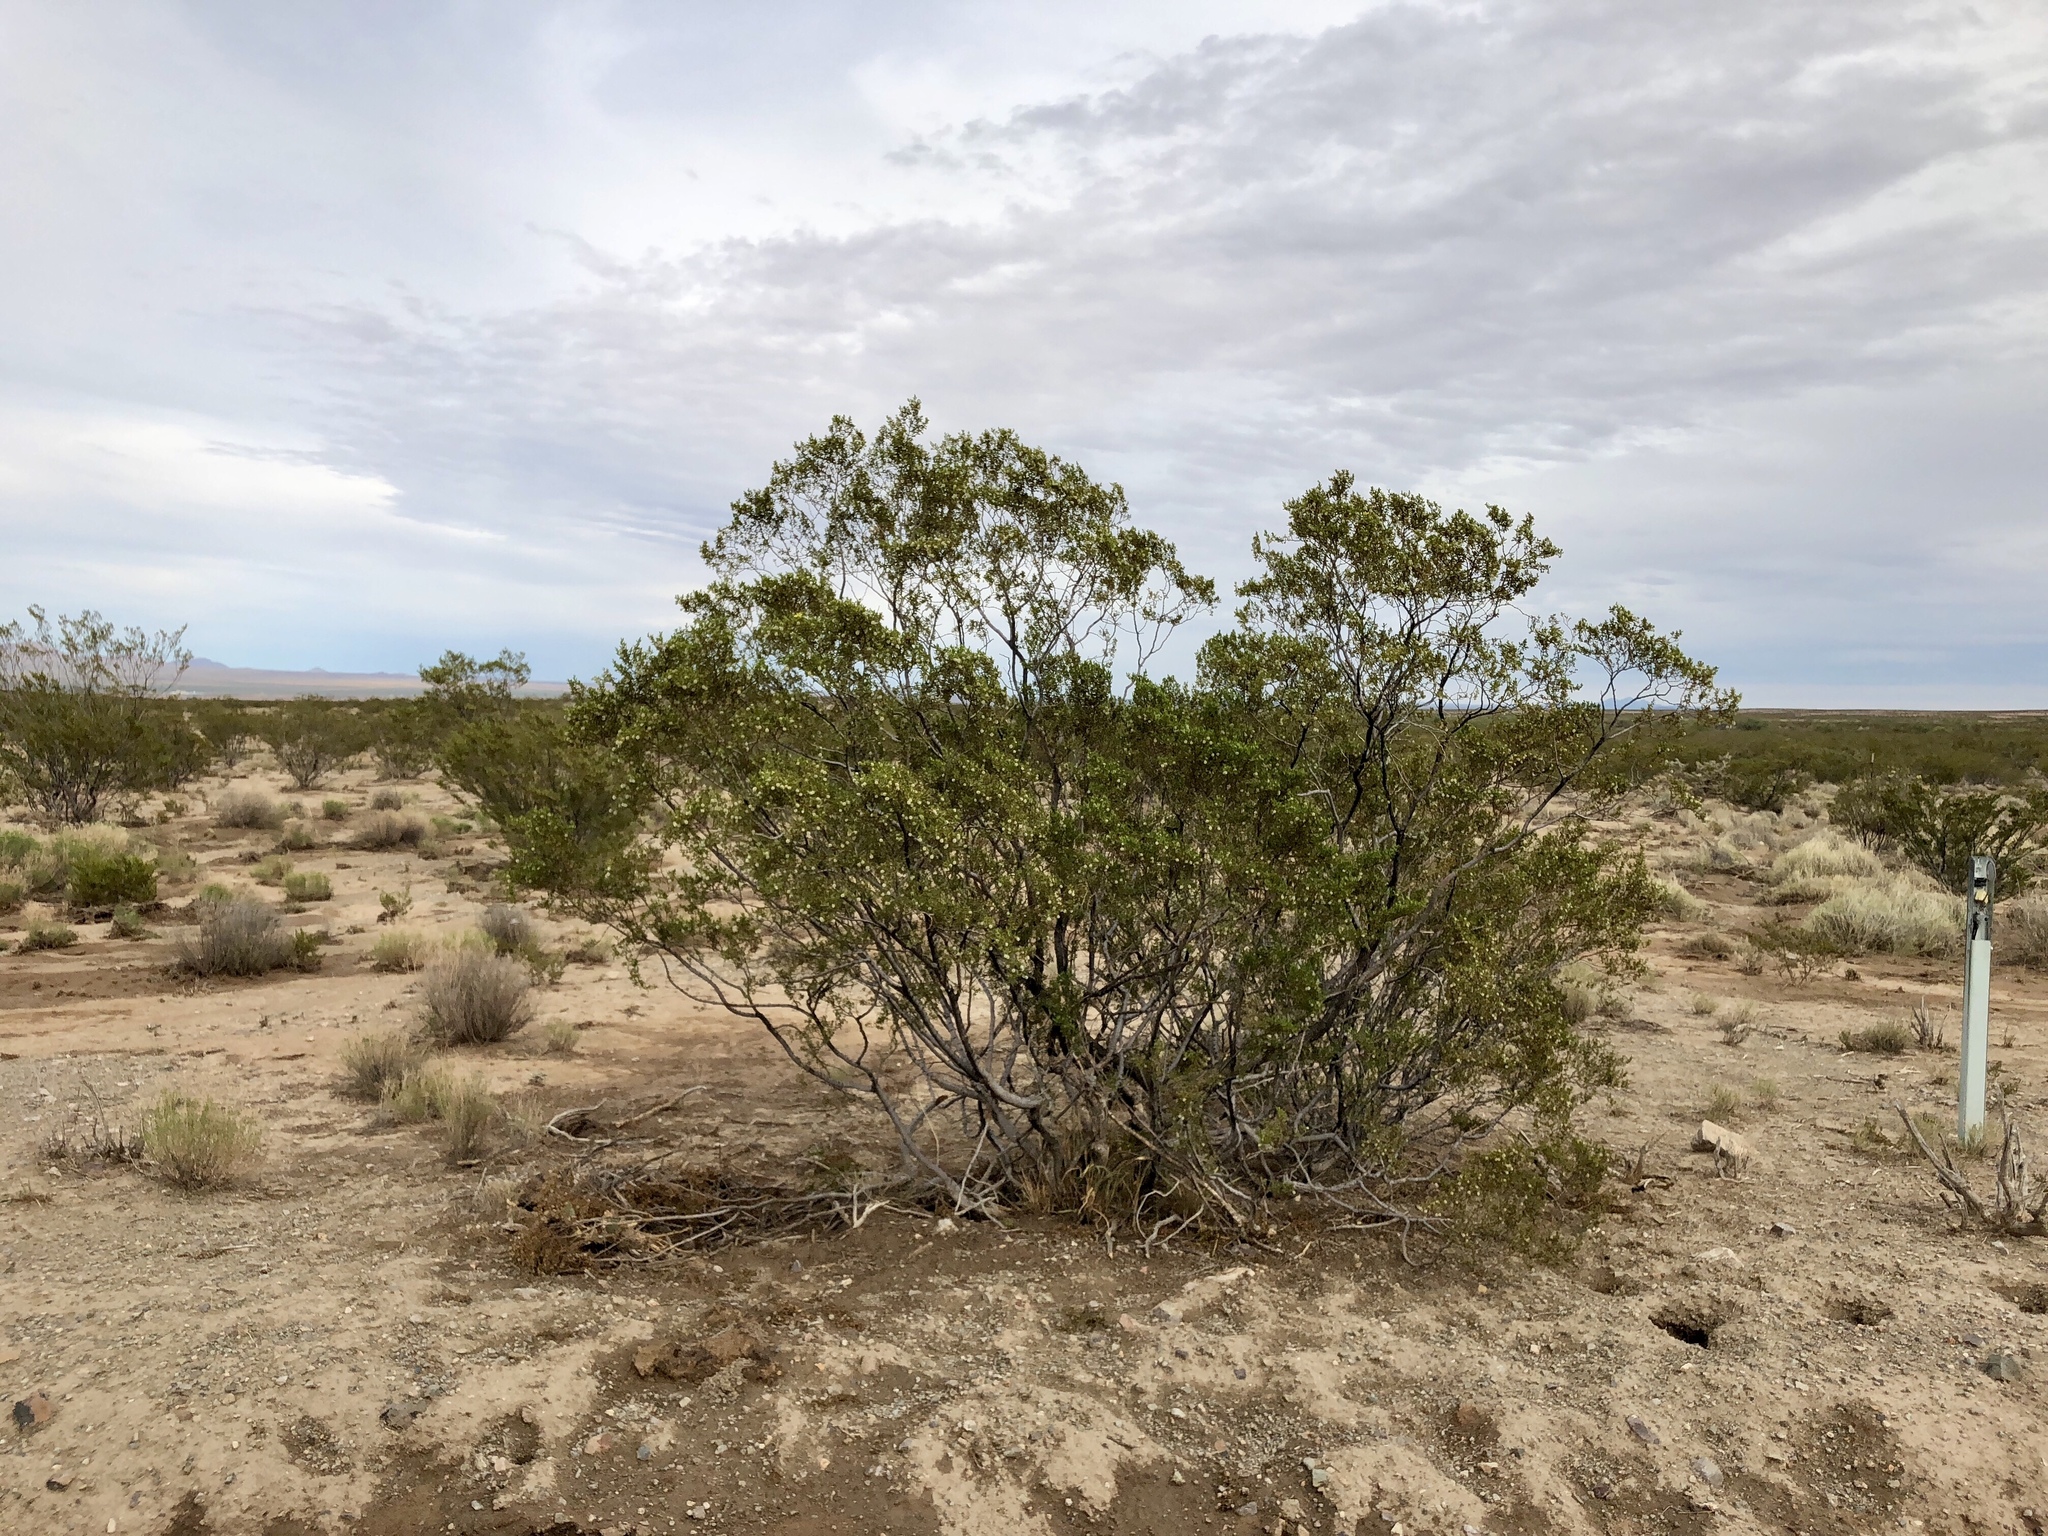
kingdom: Plantae
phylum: Tracheophyta
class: Magnoliopsida
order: Zygophyllales
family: Zygophyllaceae
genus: Larrea
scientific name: Larrea tridentata
